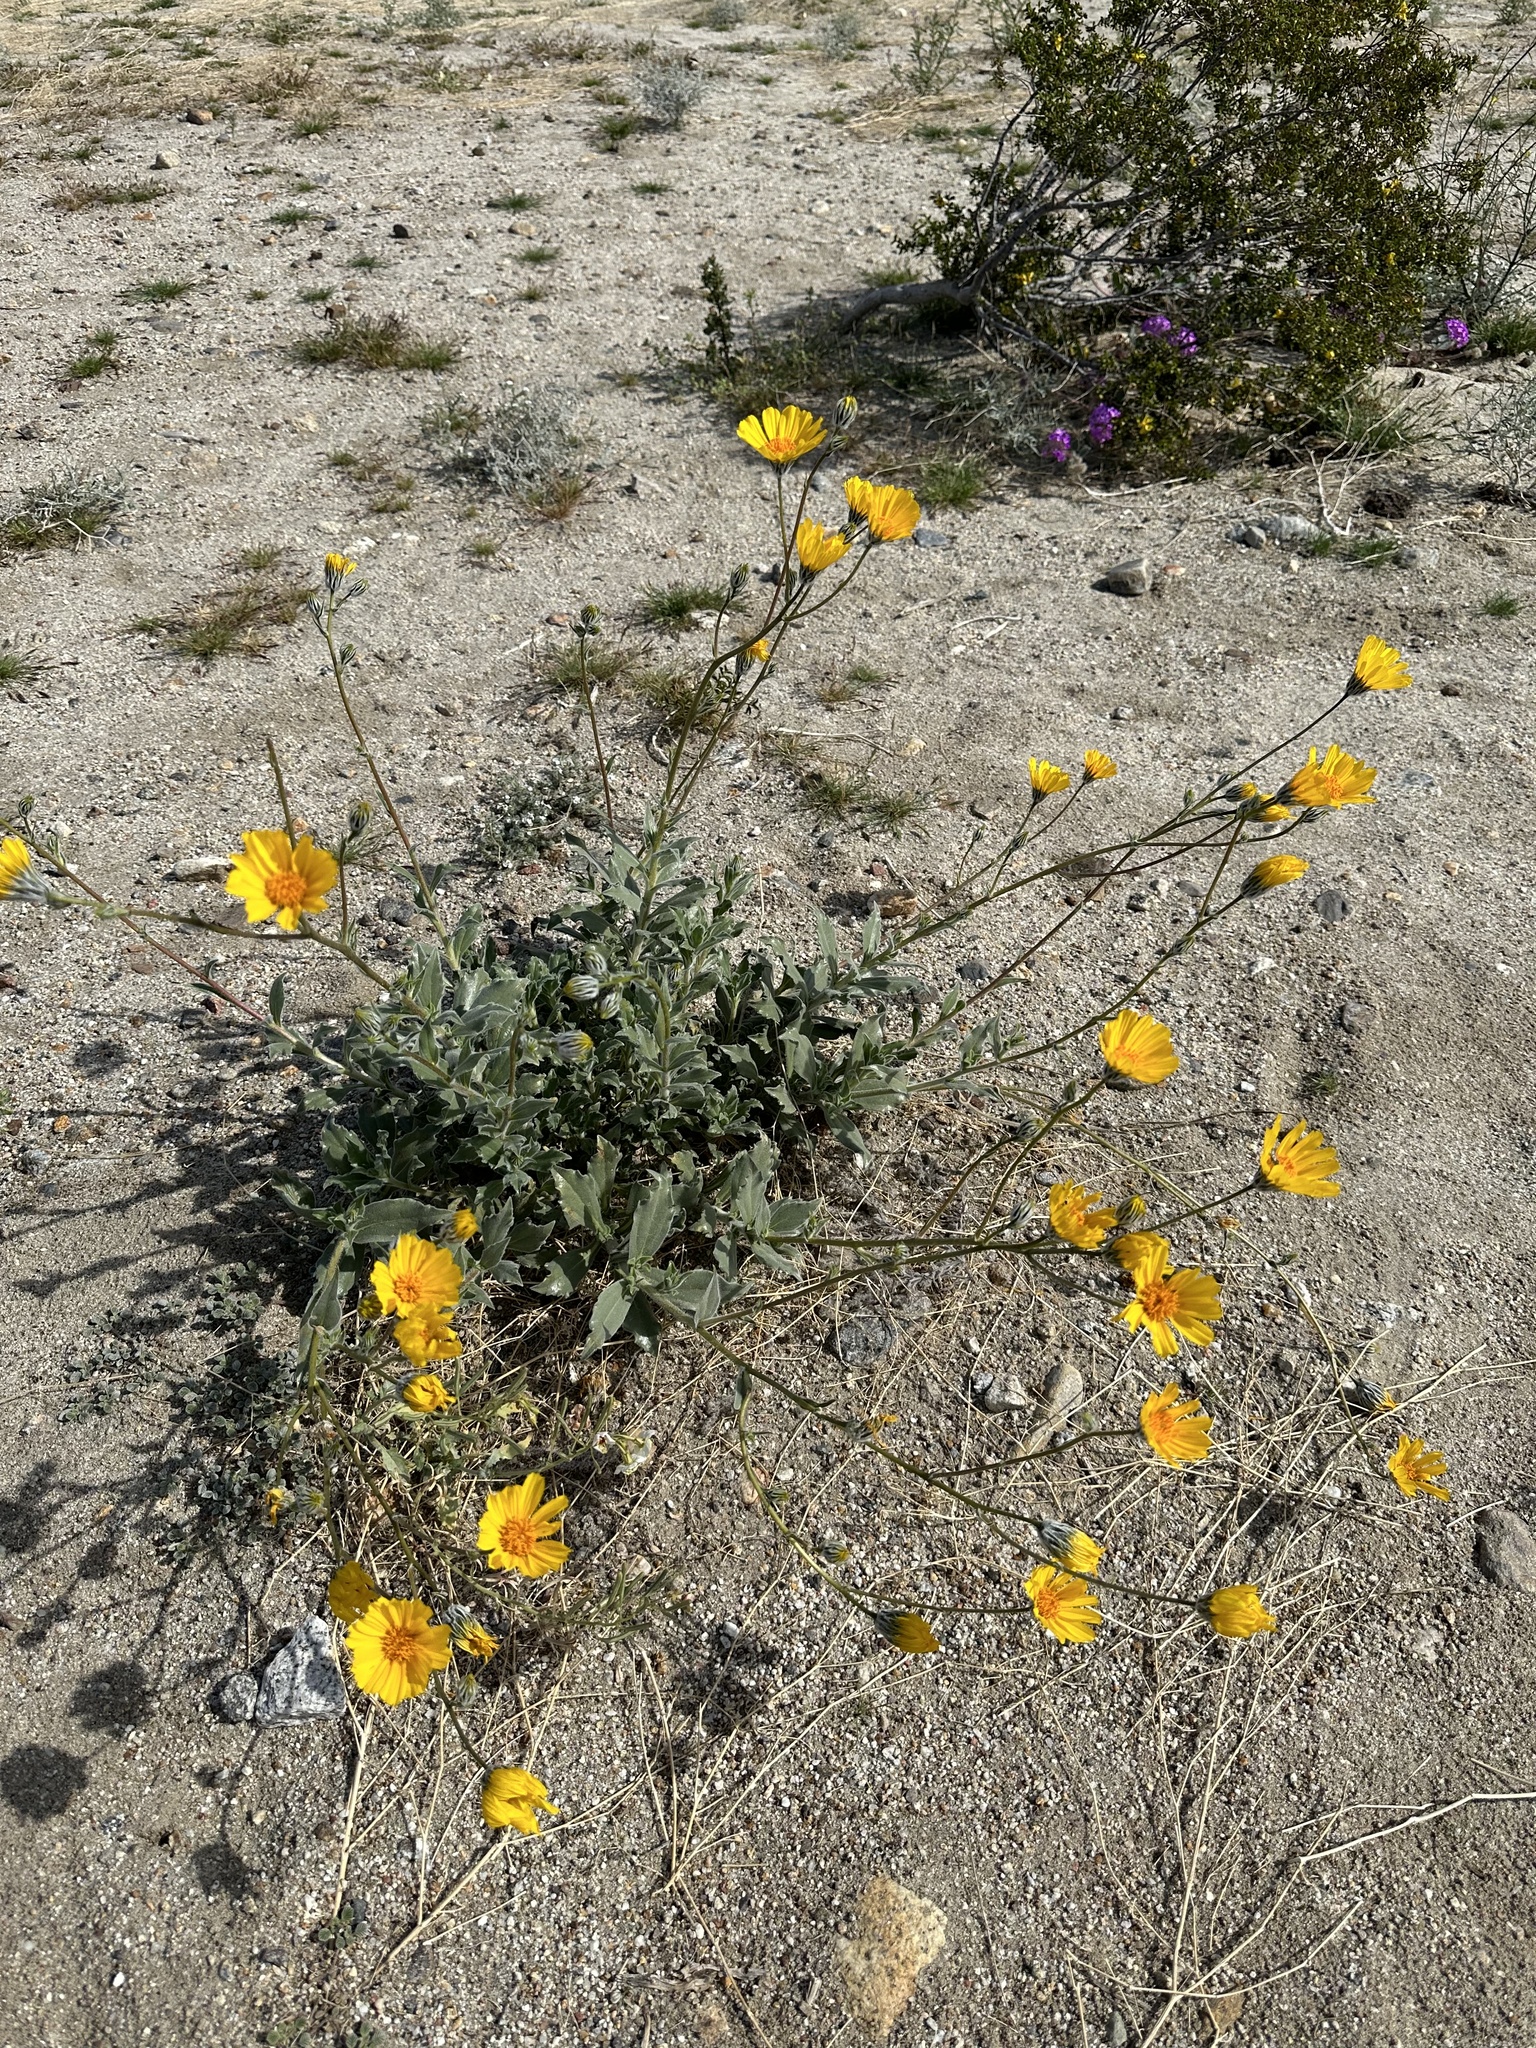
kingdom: Plantae
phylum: Tracheophyta
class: Magnoliopsida
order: Asterales
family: Asteraceae
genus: Geraea
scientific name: Geraea canescens
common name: Desert-gold
